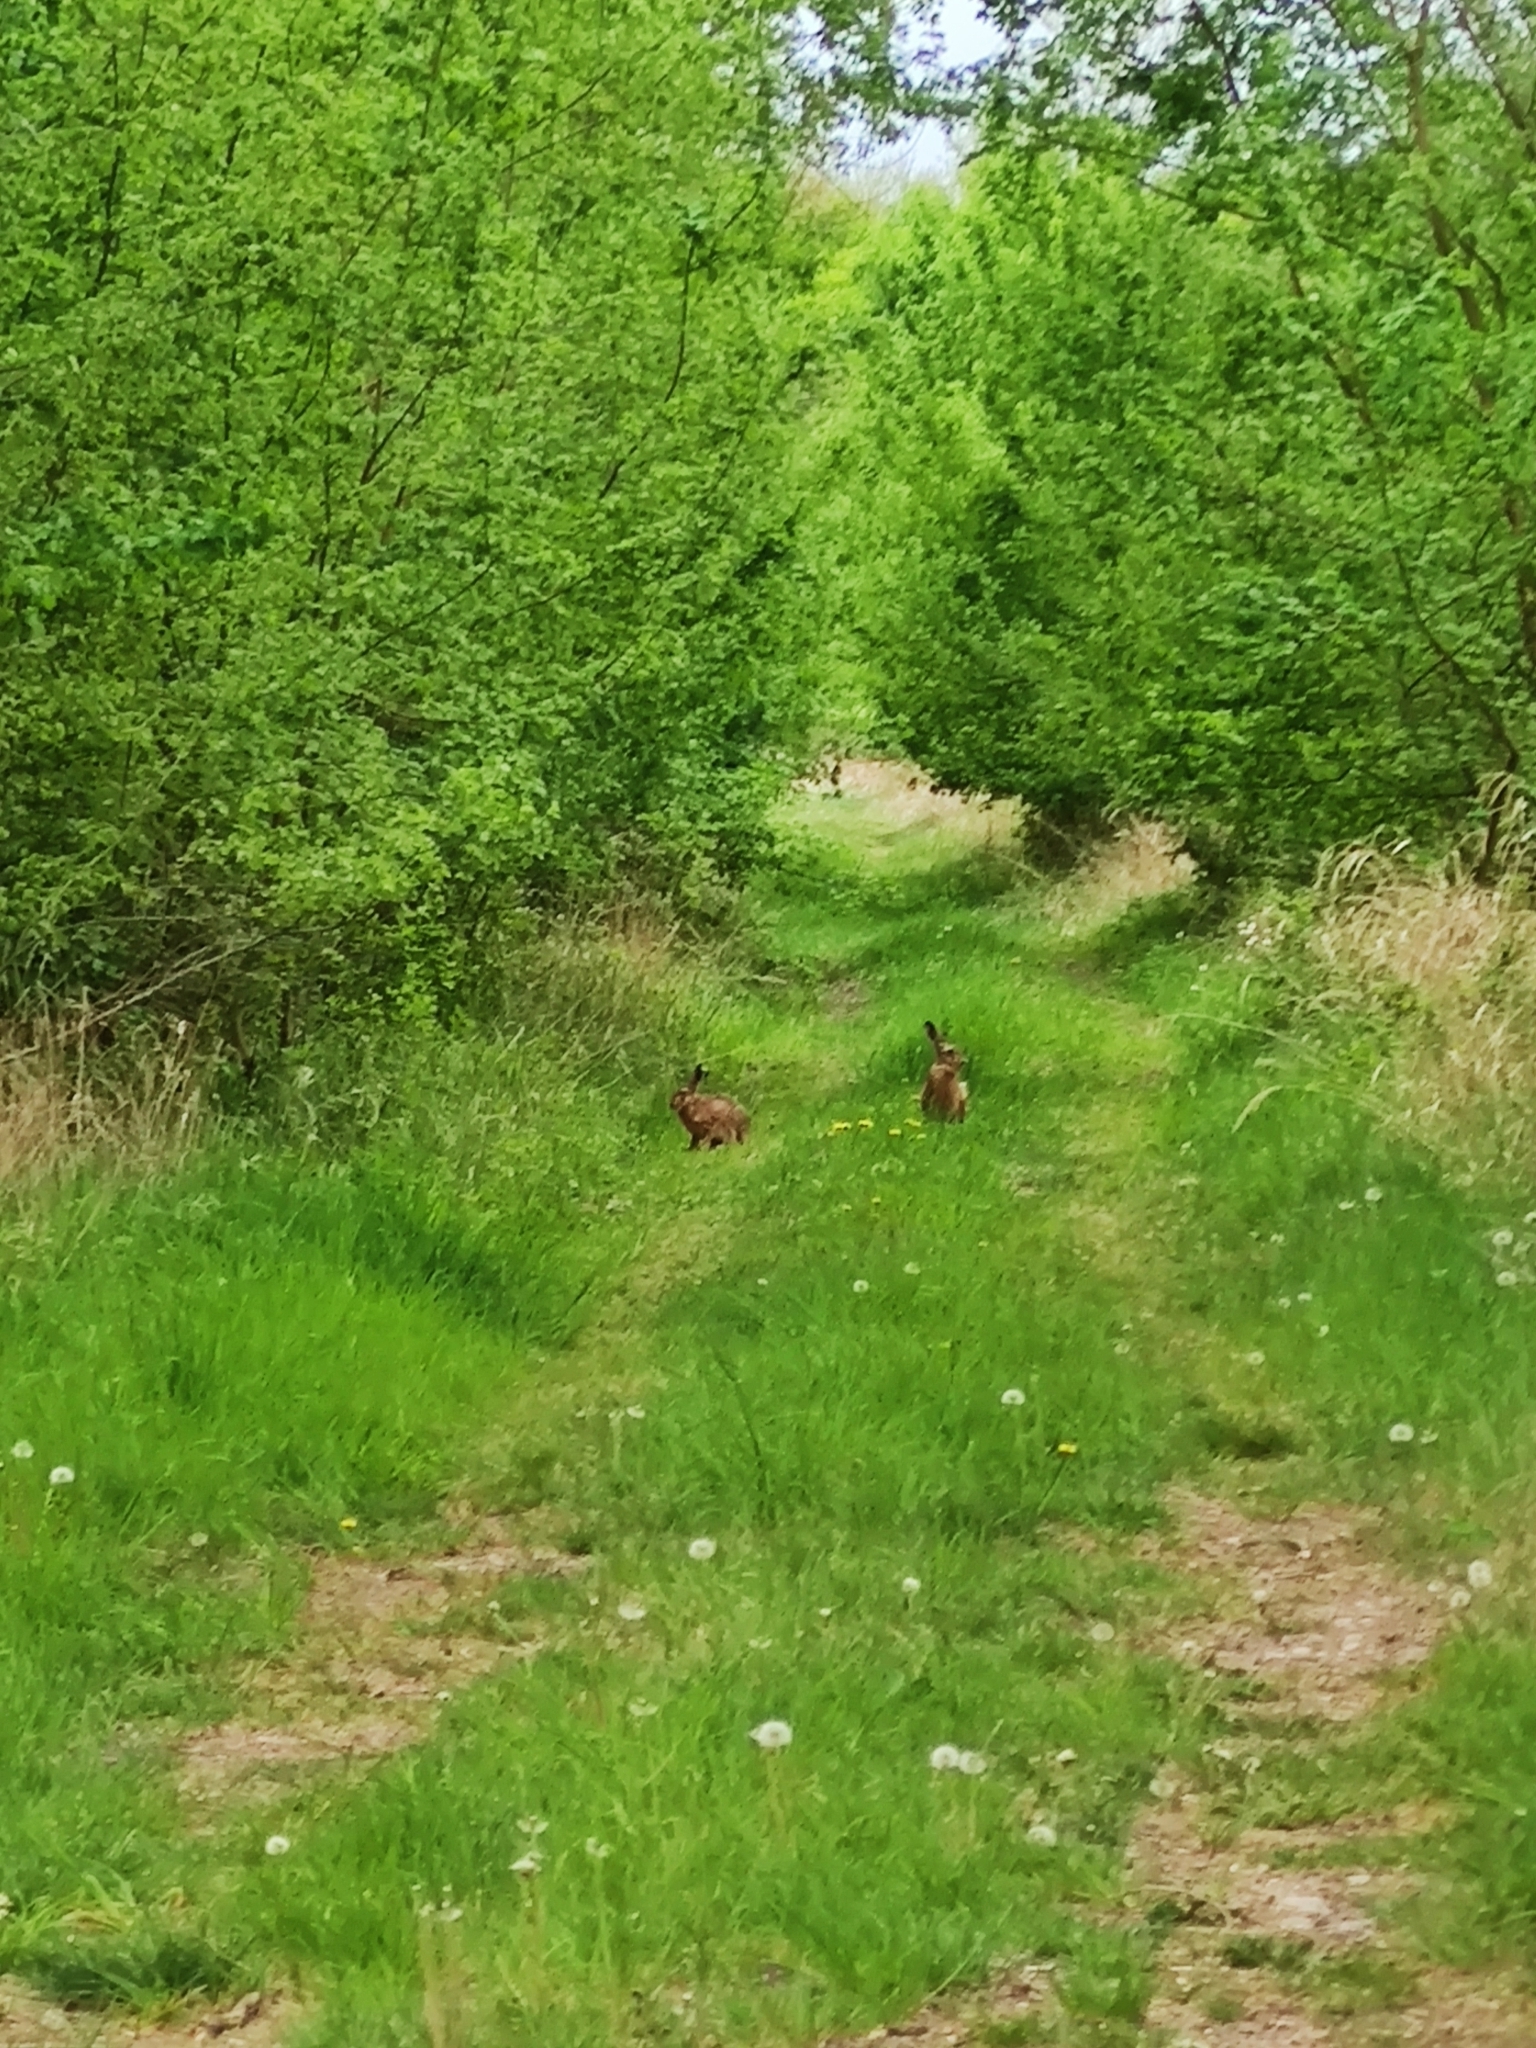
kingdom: Animalia
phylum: Chordata
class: Mammalia
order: Lagomorpha
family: Leporidae
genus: Lepus
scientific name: Lepus europaeus
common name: European hare
